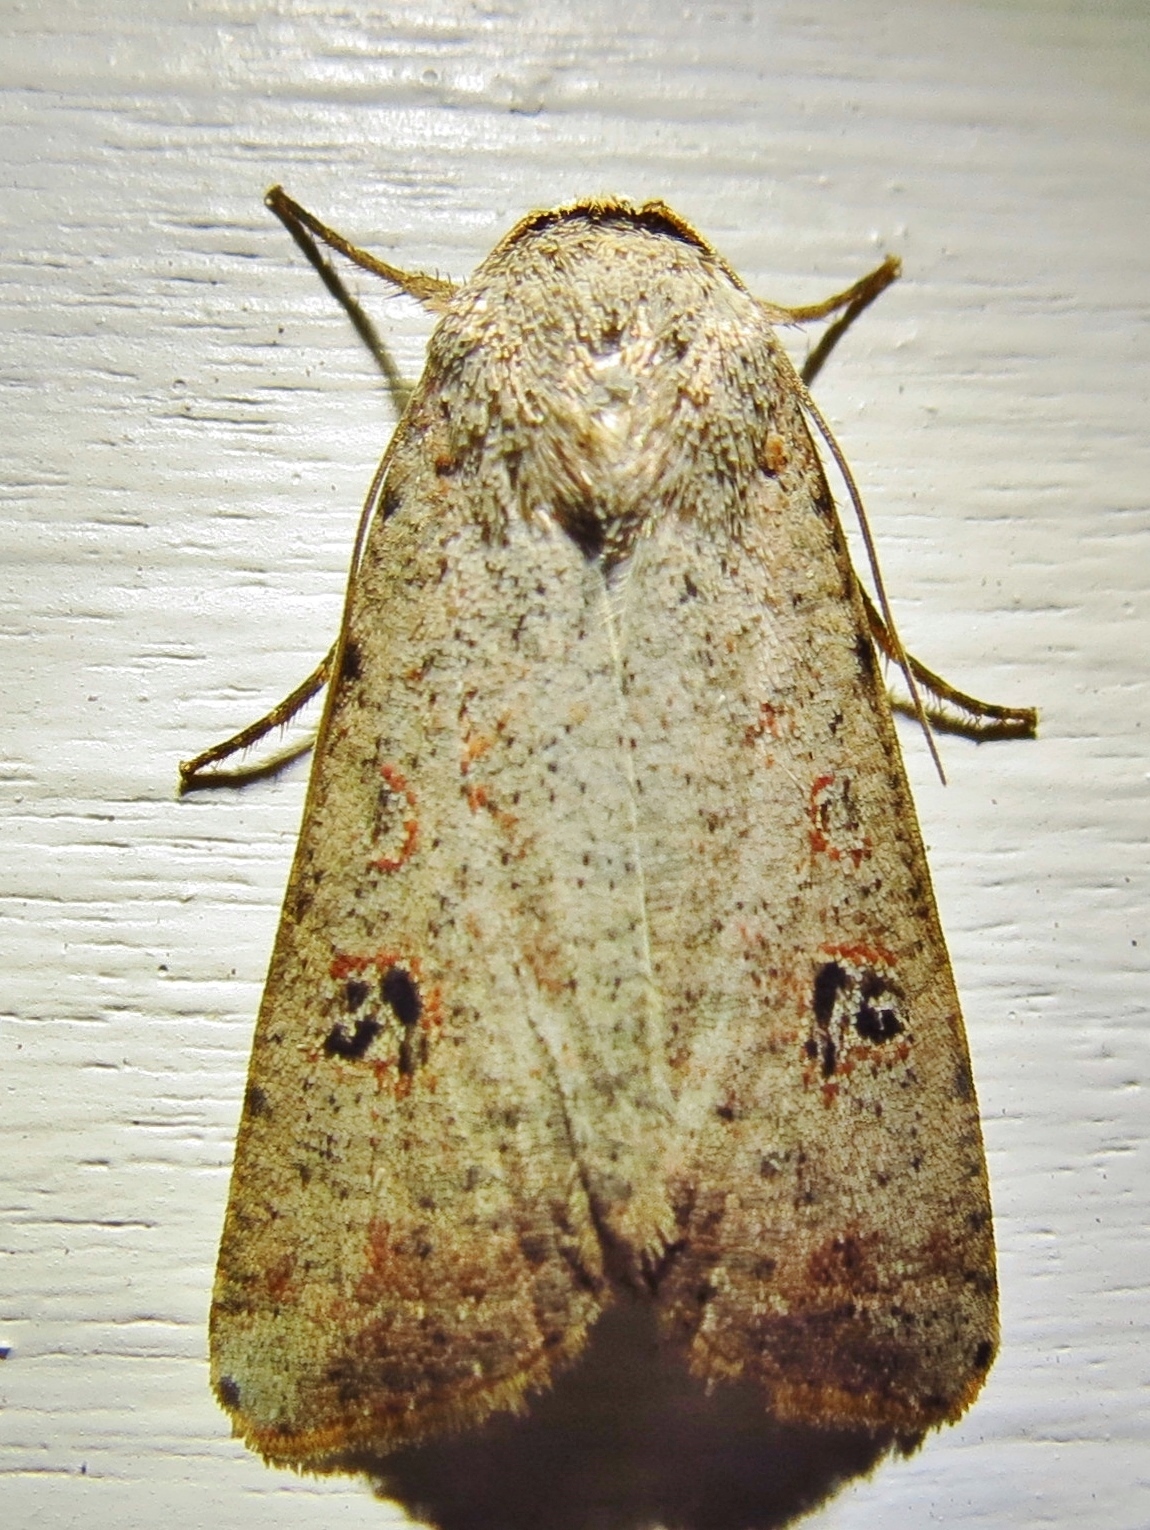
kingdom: Animalia
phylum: Arthropoda
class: Insecta
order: Lepidoptera
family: Noctuidae
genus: Anicla
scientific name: Anicla infecta
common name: Green cutworm
